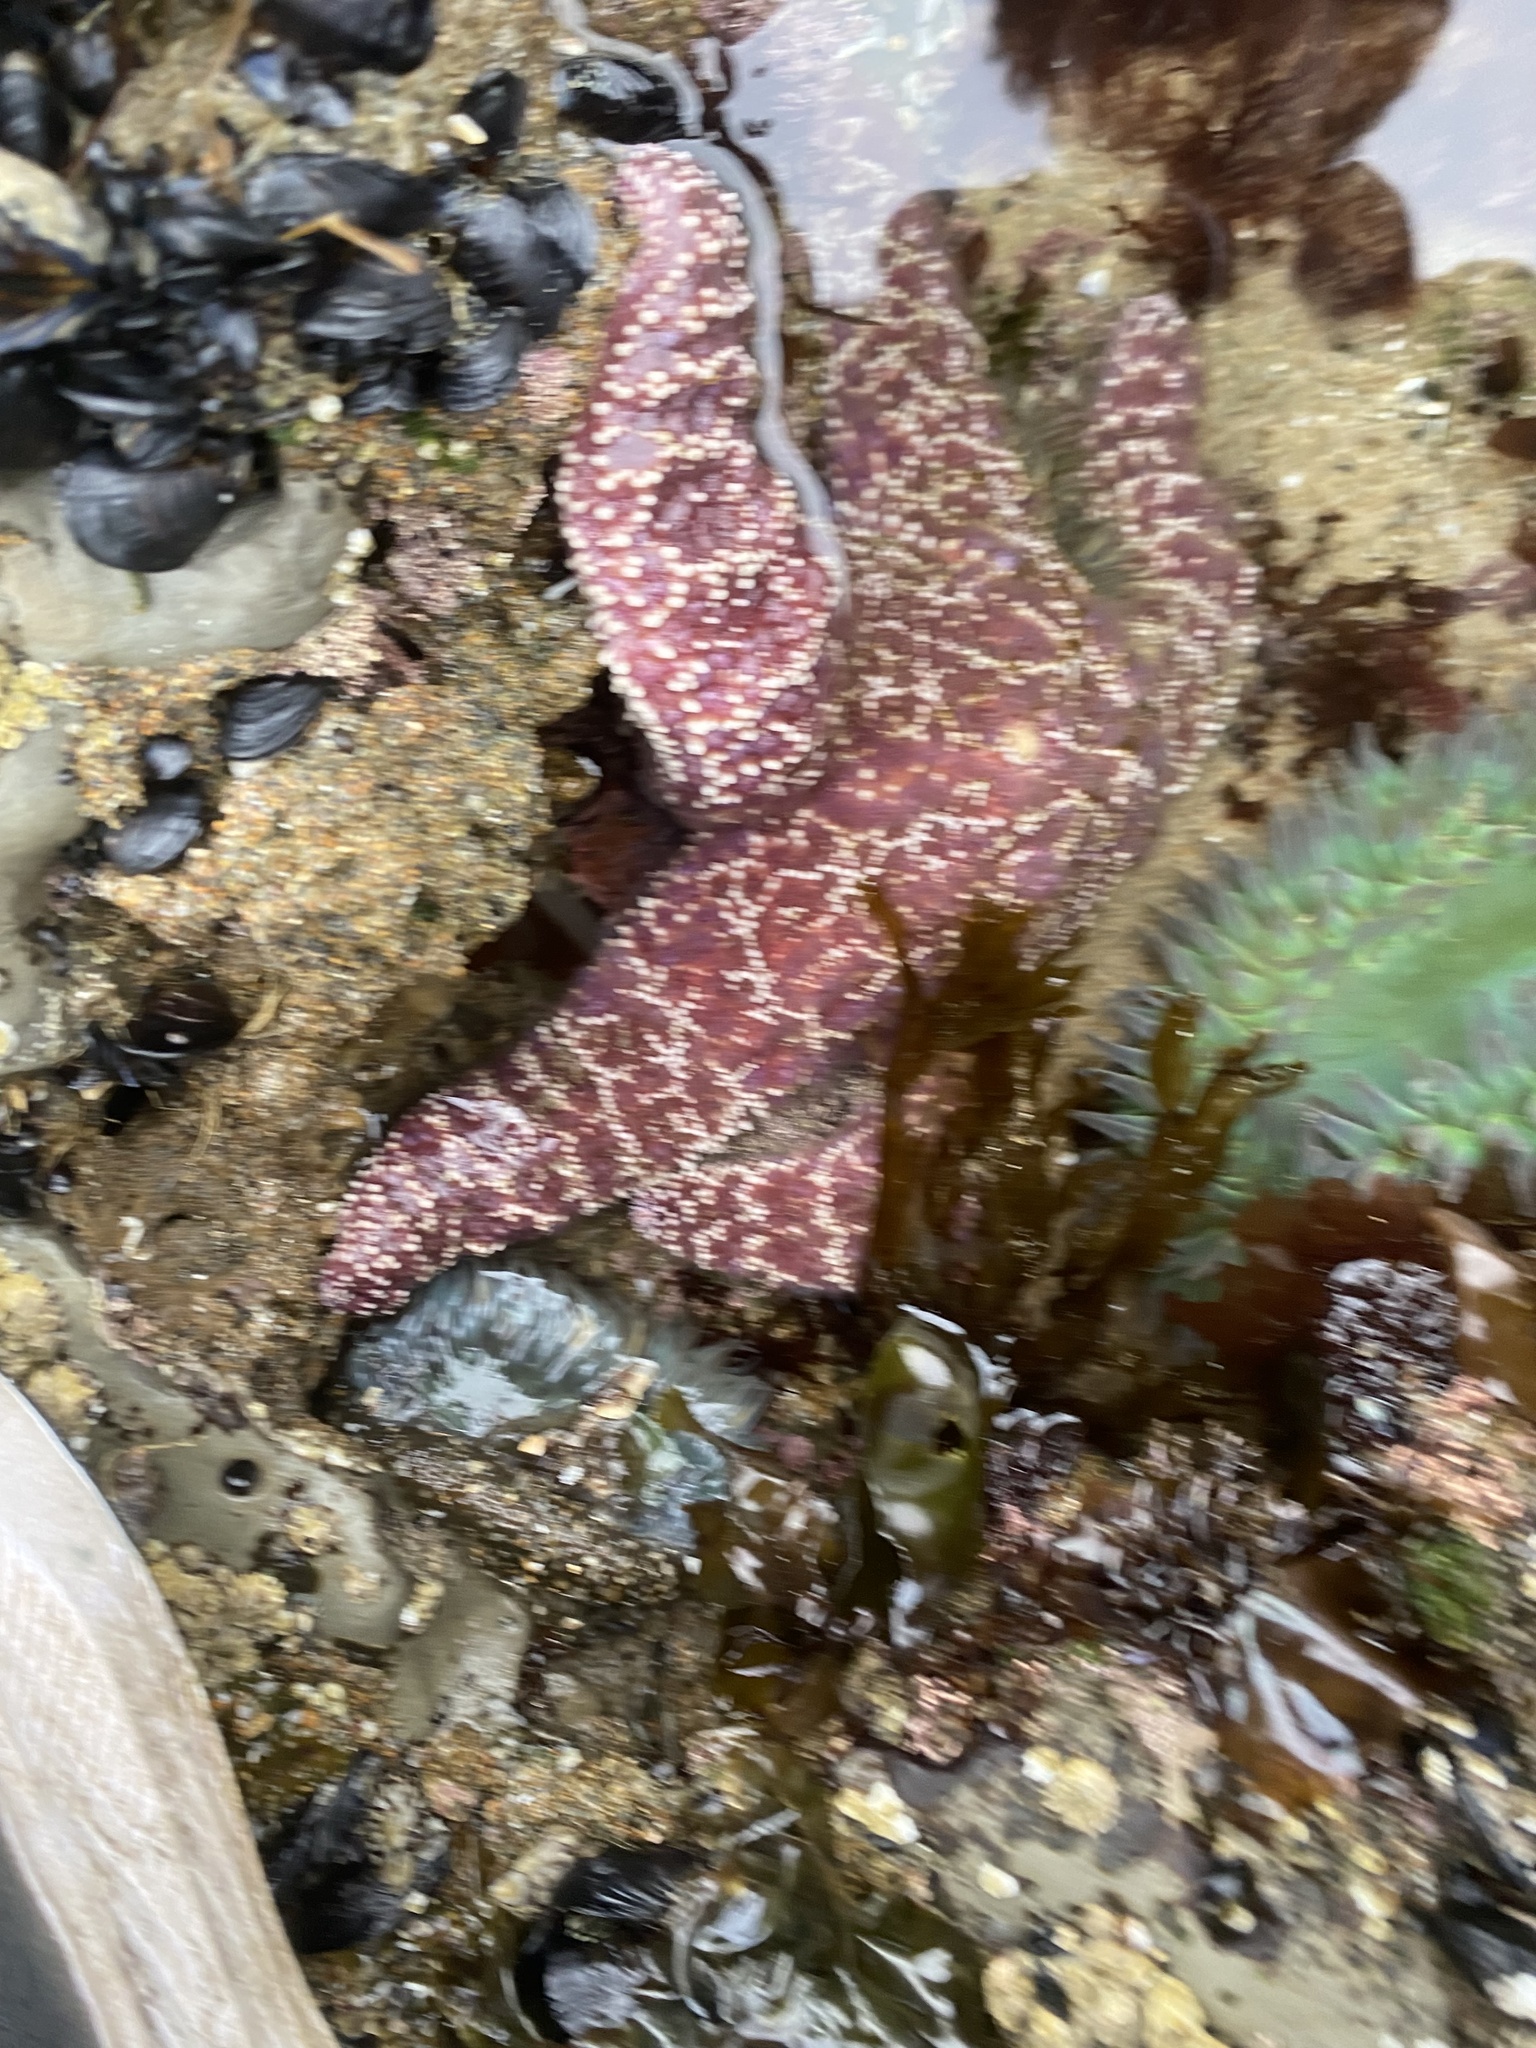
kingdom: Animalia
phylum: Echinodermata
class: Asteroidea
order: Forcipulatida
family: Asteriidae
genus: Pisaster
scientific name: Pisaster ochraceus
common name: Ochre stars
